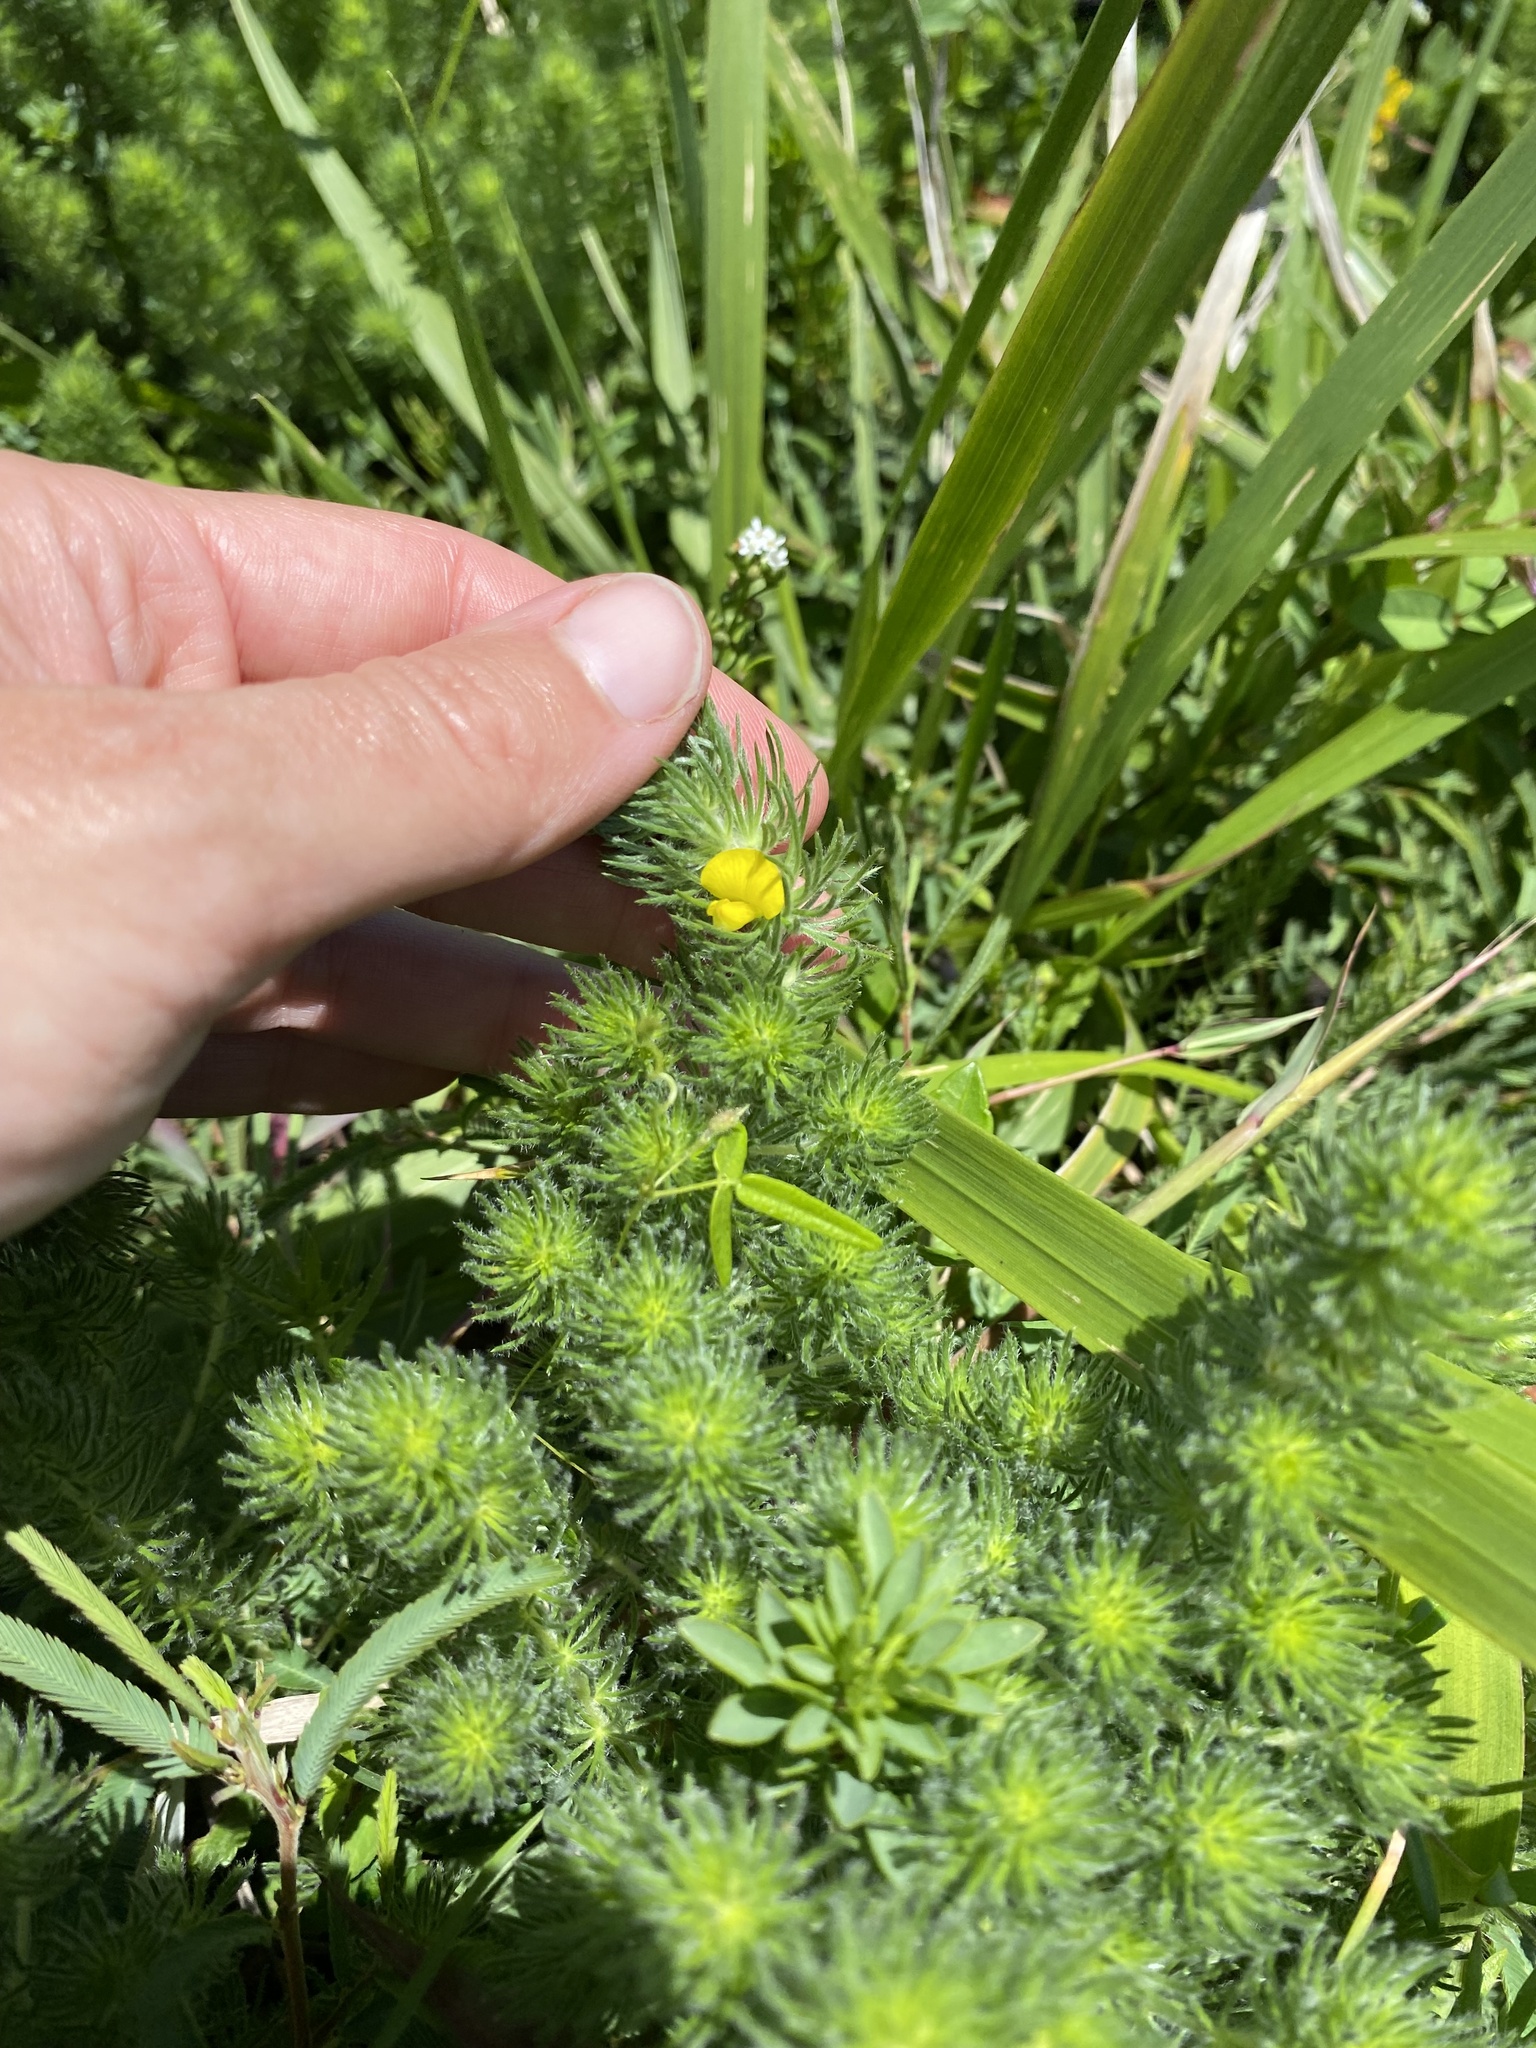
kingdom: Plantae
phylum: Tracheophyta
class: Magnoliopsida
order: Fabales
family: Fabaceae
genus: Aspalathus
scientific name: Aspalathus dahlgrenii
